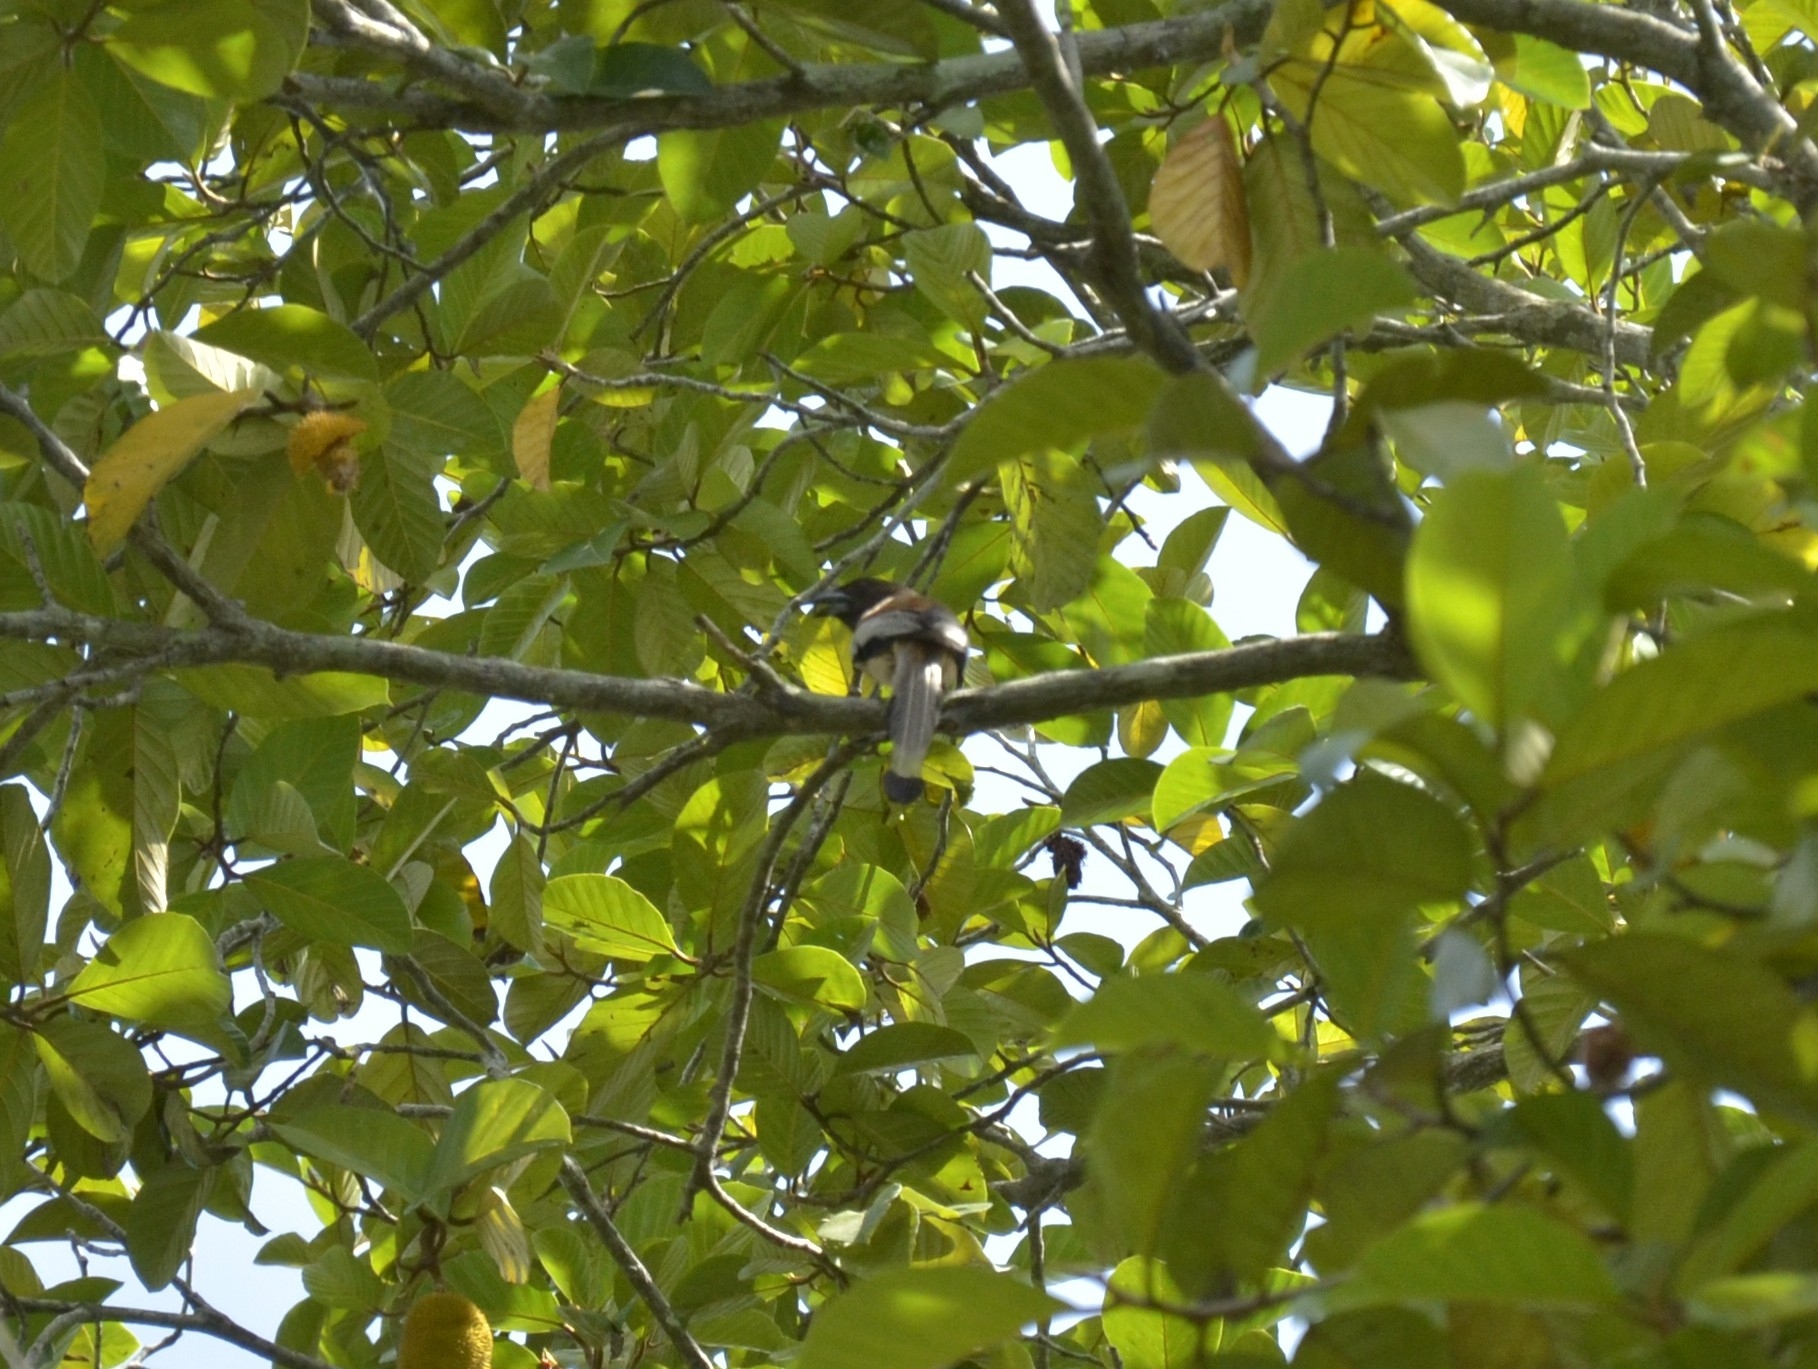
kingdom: Animalia
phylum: Chordata
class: Aves
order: Passeriformes
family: Corvidae
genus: Dendrocitta
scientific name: Dendrocitta vagabunda
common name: Rufous treepie
